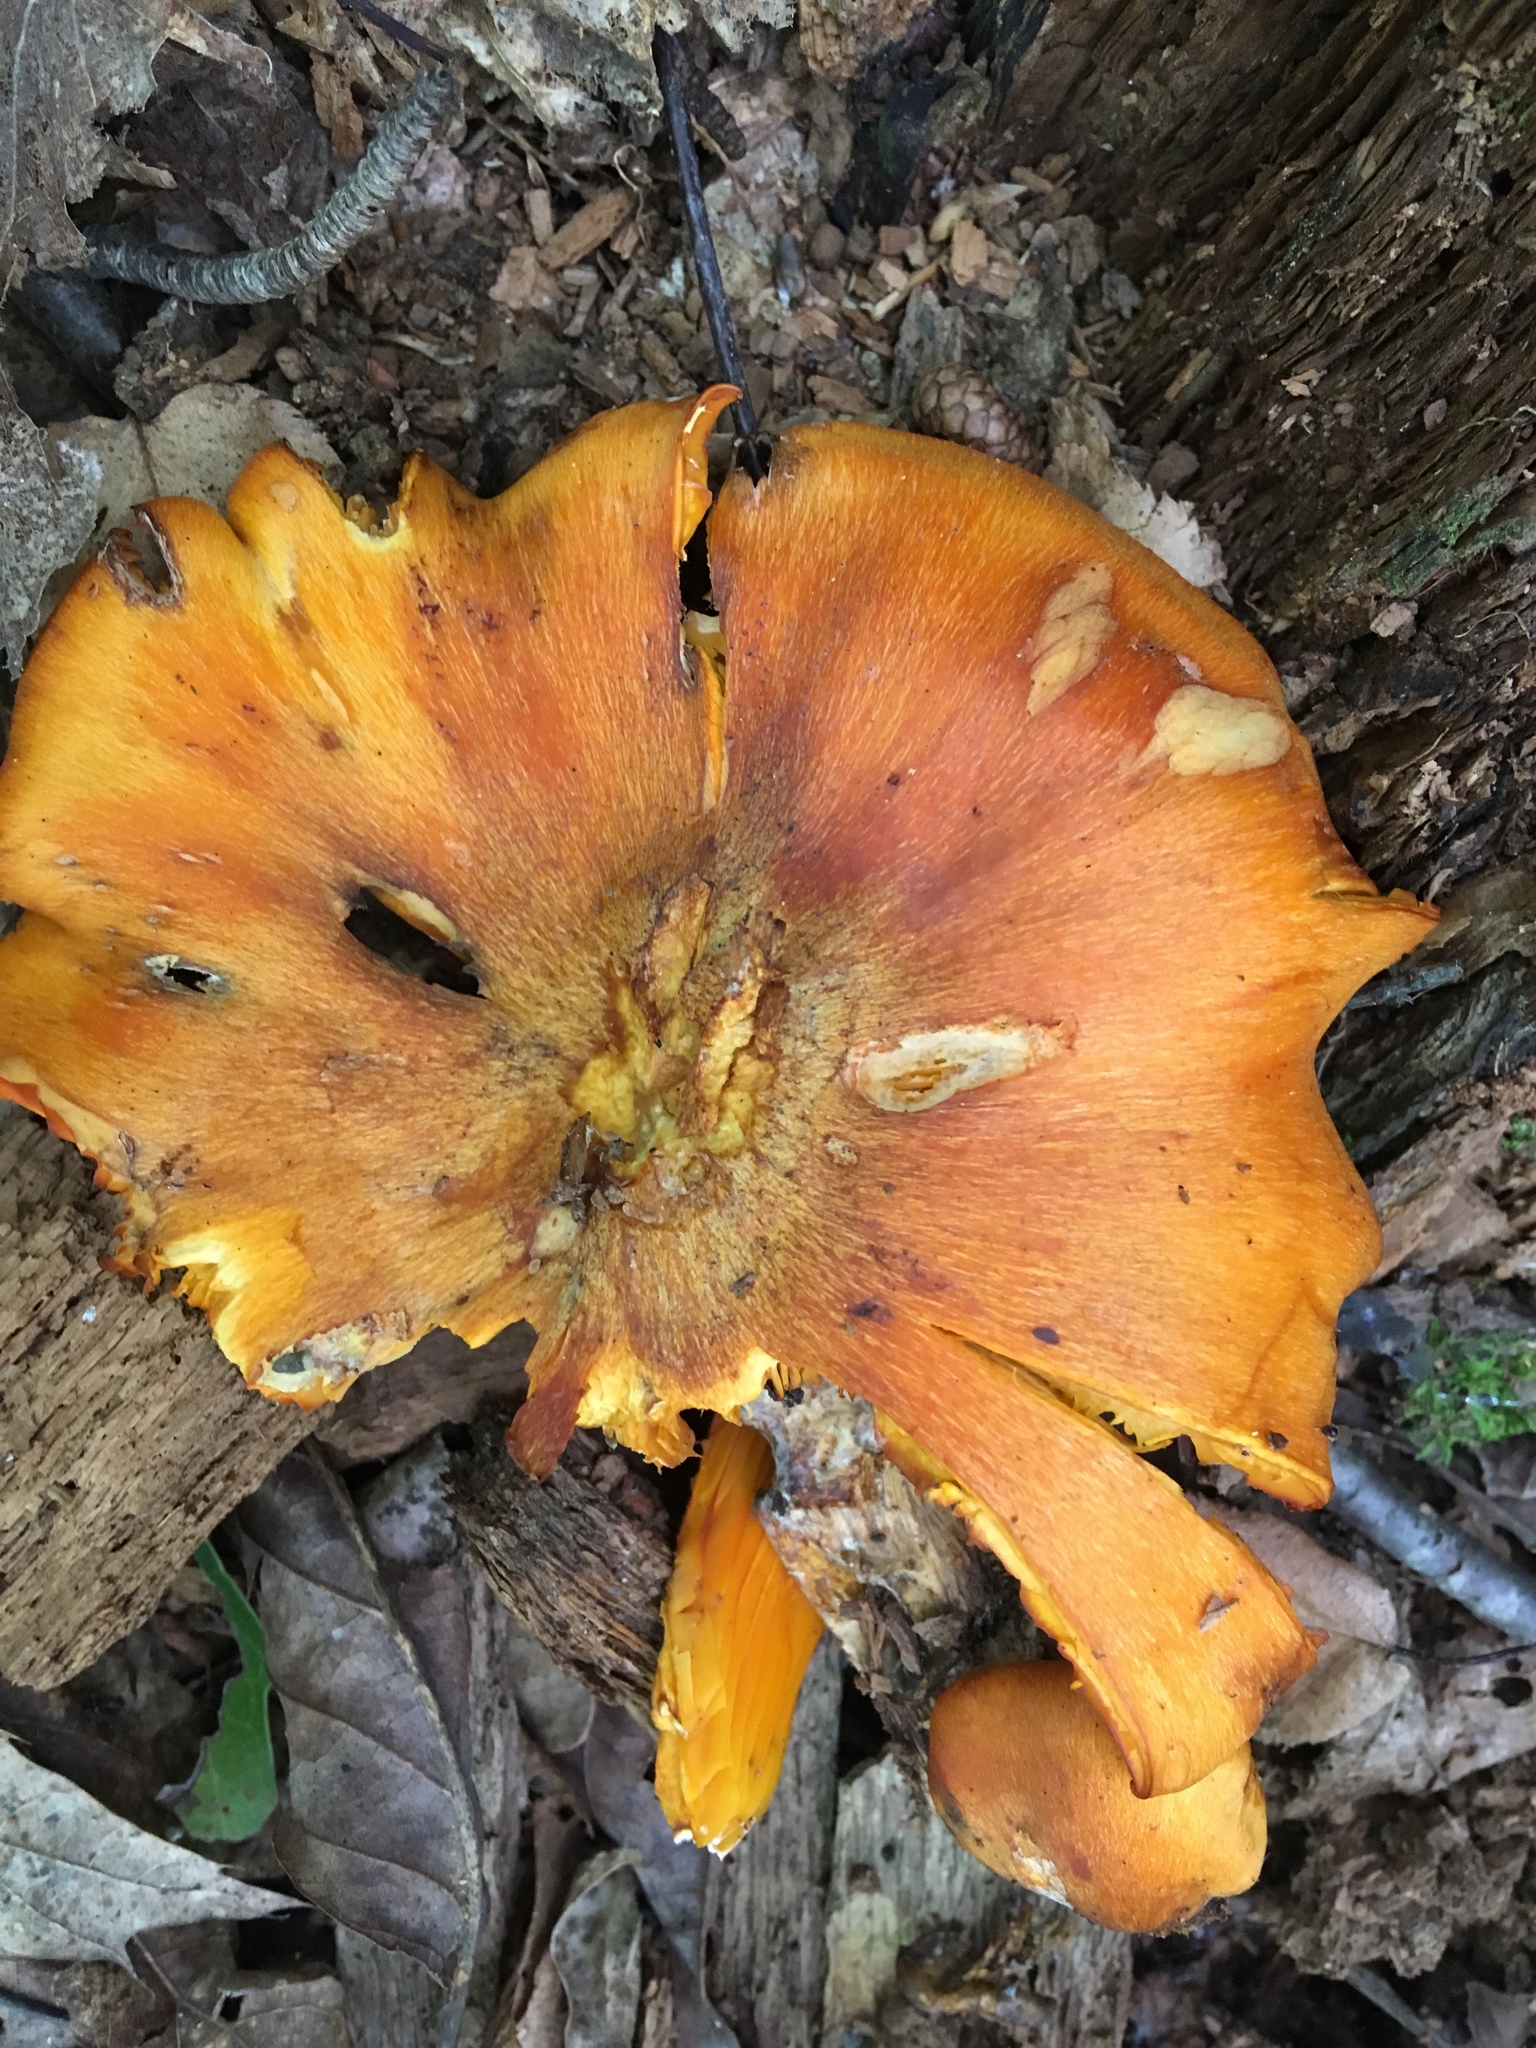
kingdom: Fungi
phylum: Basidiomycota
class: Agaricomycetes
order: Agaricales
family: Omphalotaceae
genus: Omphalotus
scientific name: Omphalotus illudens
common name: Jack o lantern
